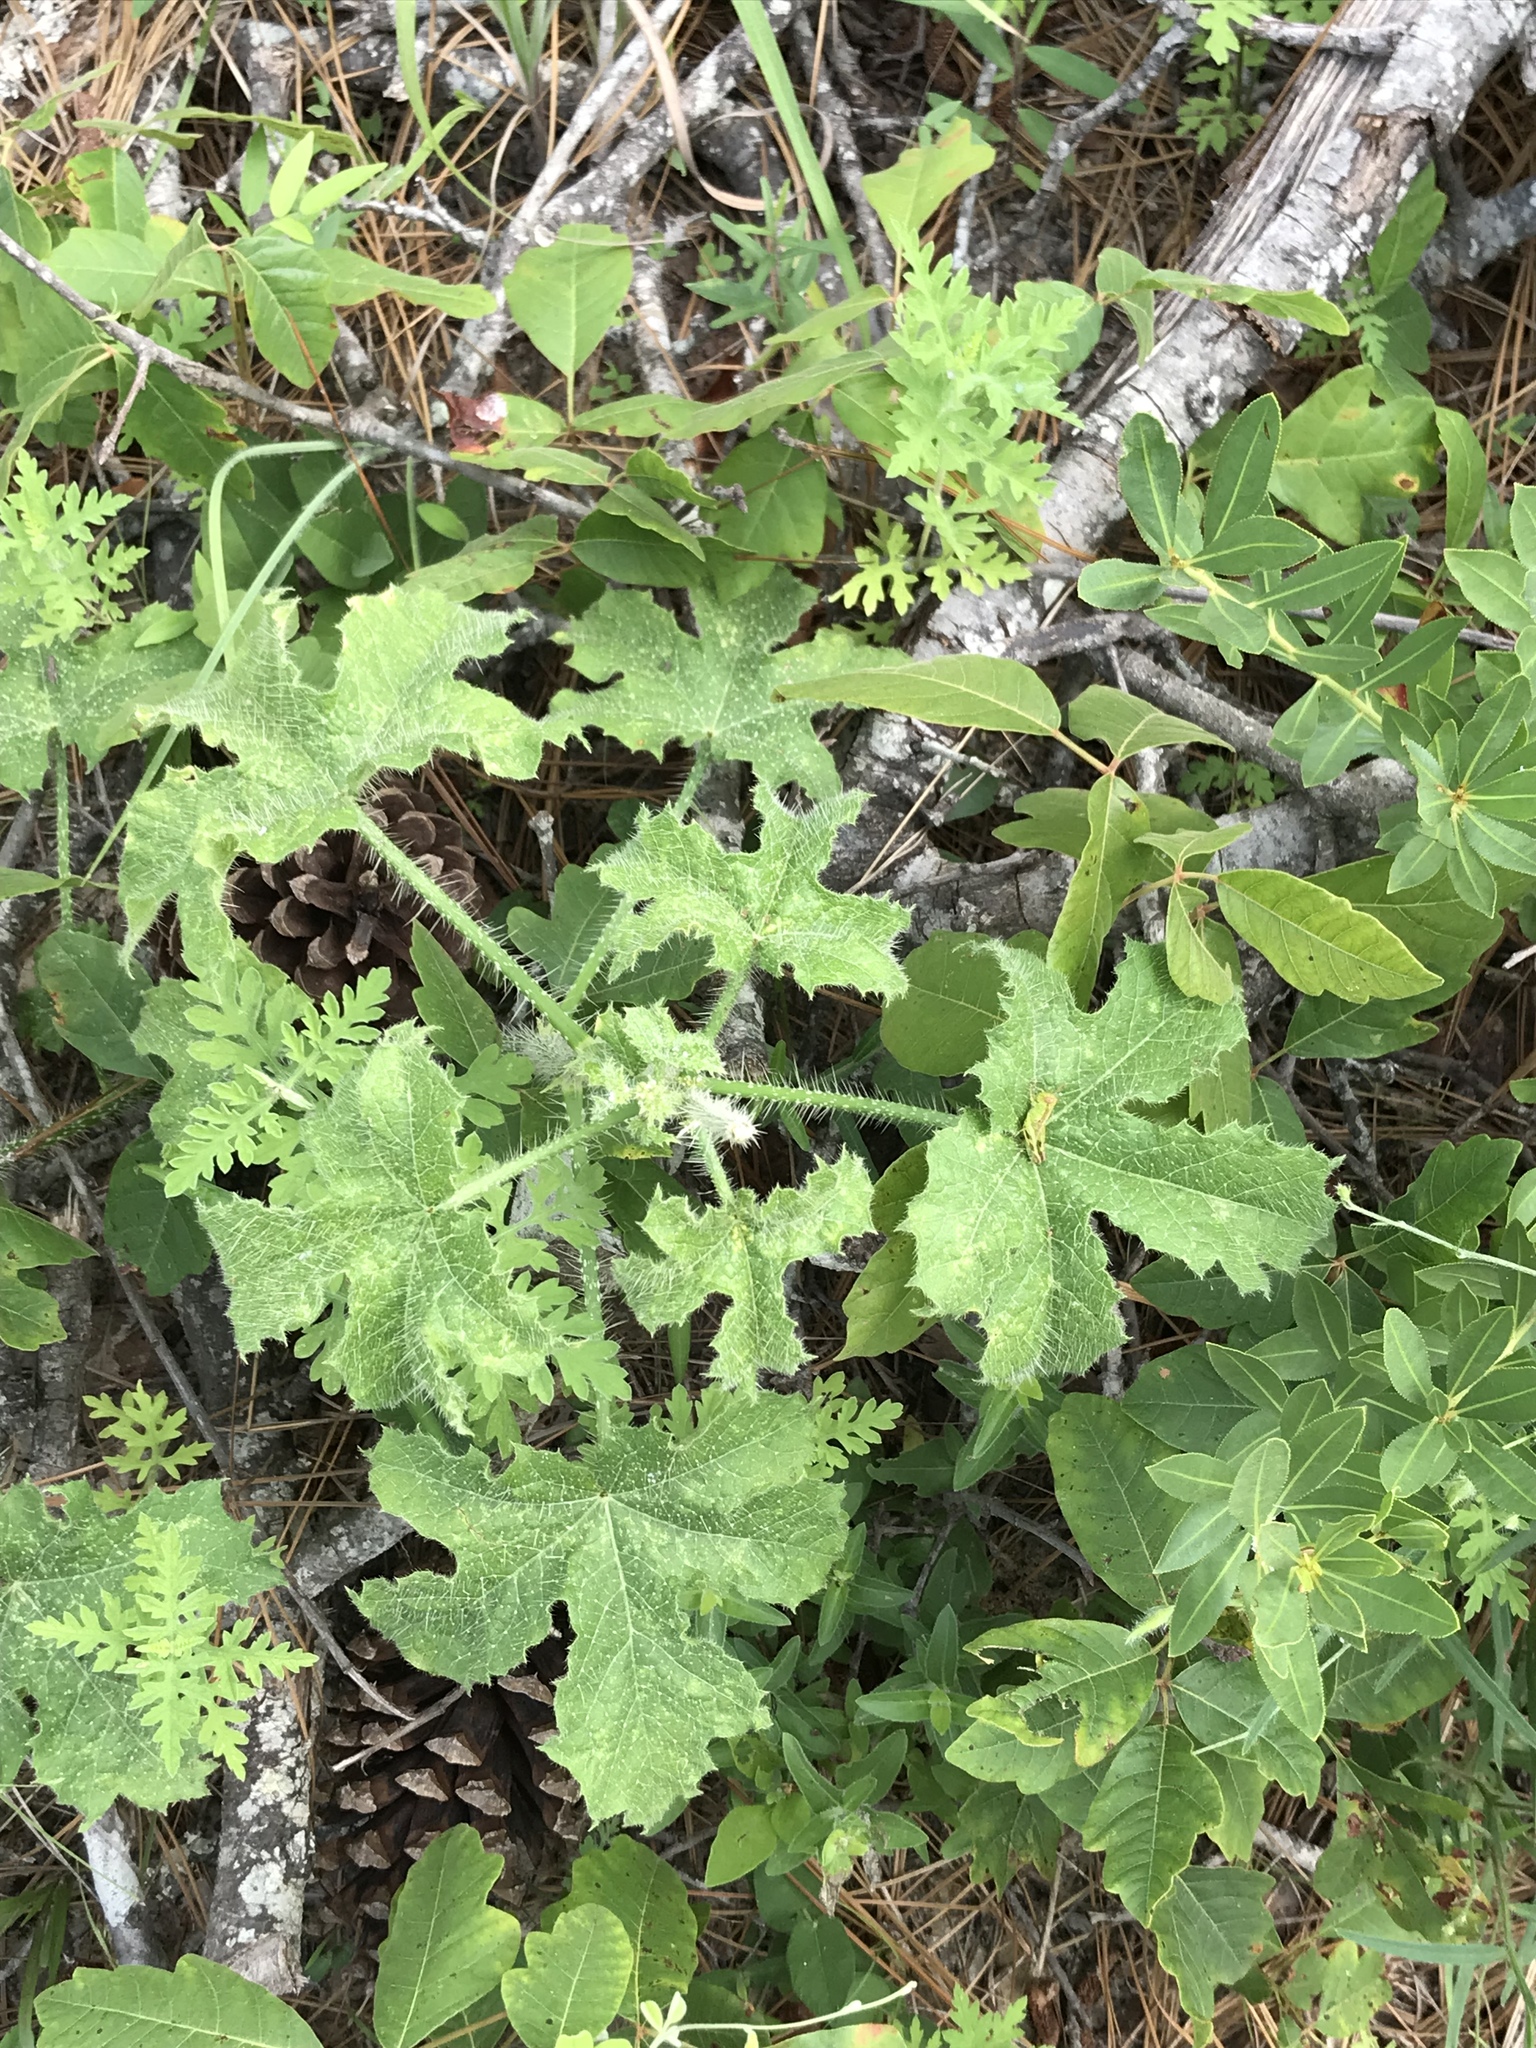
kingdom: Plantae
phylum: Tracheophyta
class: Magnoliopsida
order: Malpighiales
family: Euphorbiaceae
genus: Cnidoscolus
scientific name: Cnidoscolus texanus
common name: Texas bull-nettle
